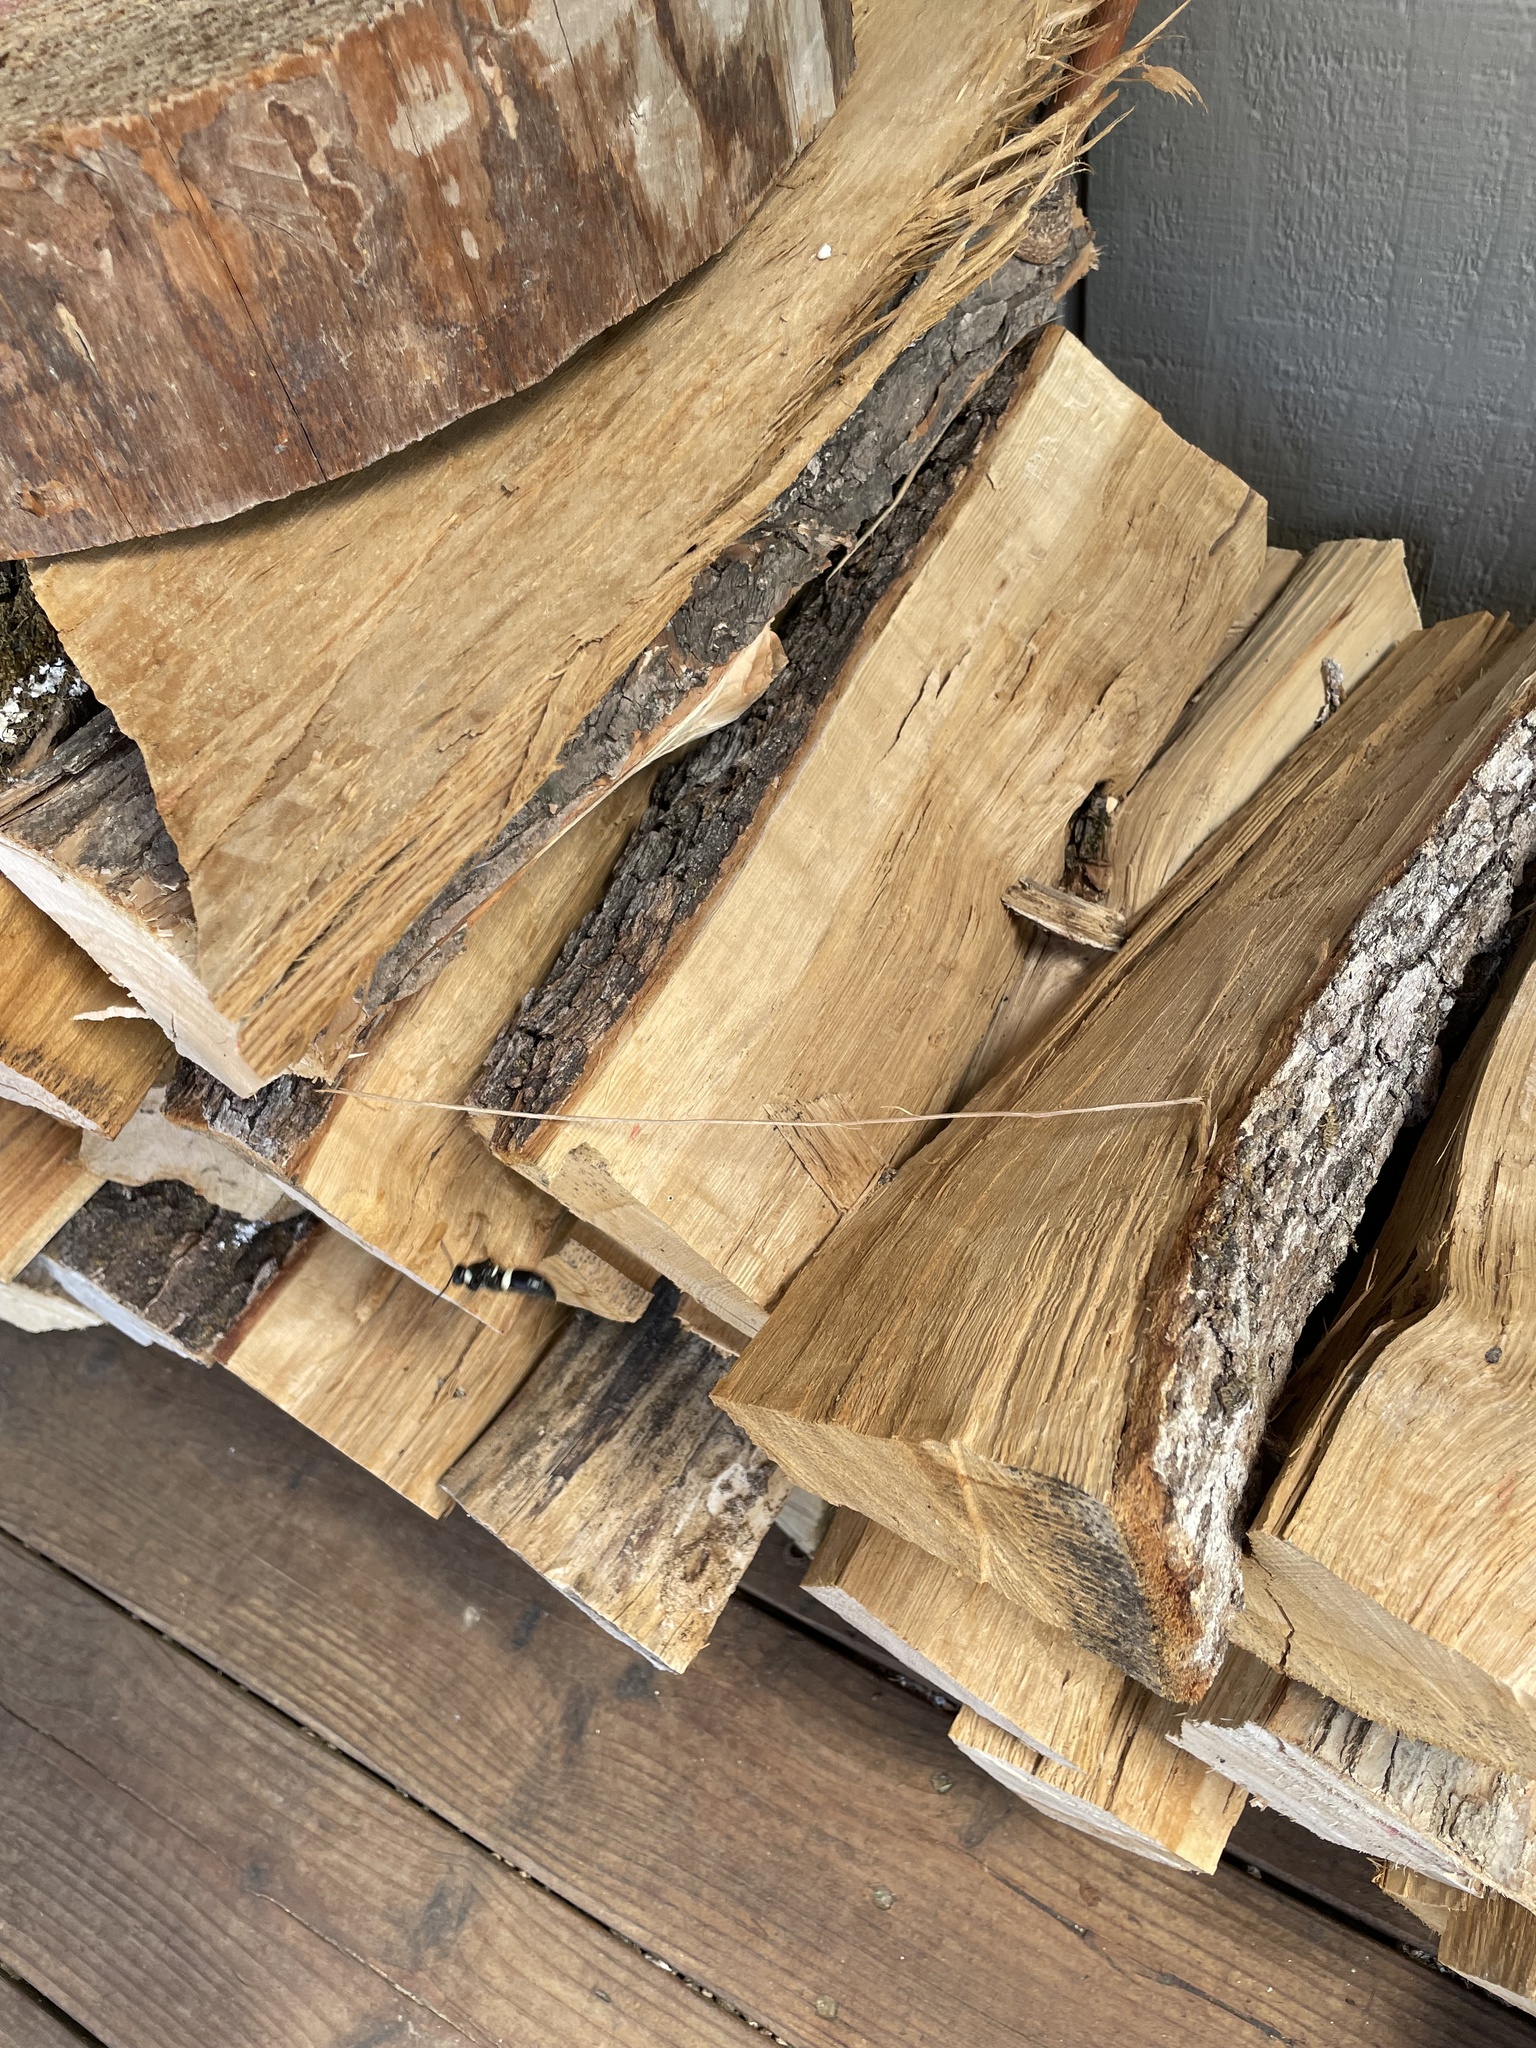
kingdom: Animalia
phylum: Arthropoda
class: Insecta
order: Hymenoptera
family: Eumenidae
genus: Monobia
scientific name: Monobia quadridens
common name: Four-toothed mason wasp
